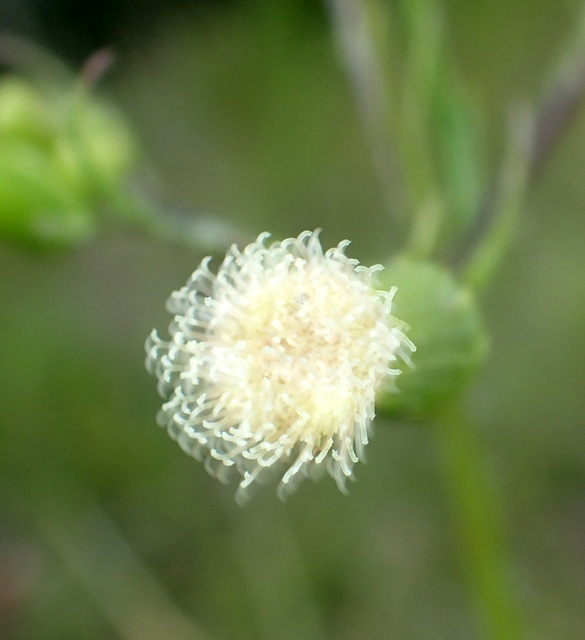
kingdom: Plantae
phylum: Tracheophyta
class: Magnoliopsida
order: Asterales
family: Asteraceae
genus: Erechtites
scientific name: Erechtites hieraciifolius
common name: American burnweed
